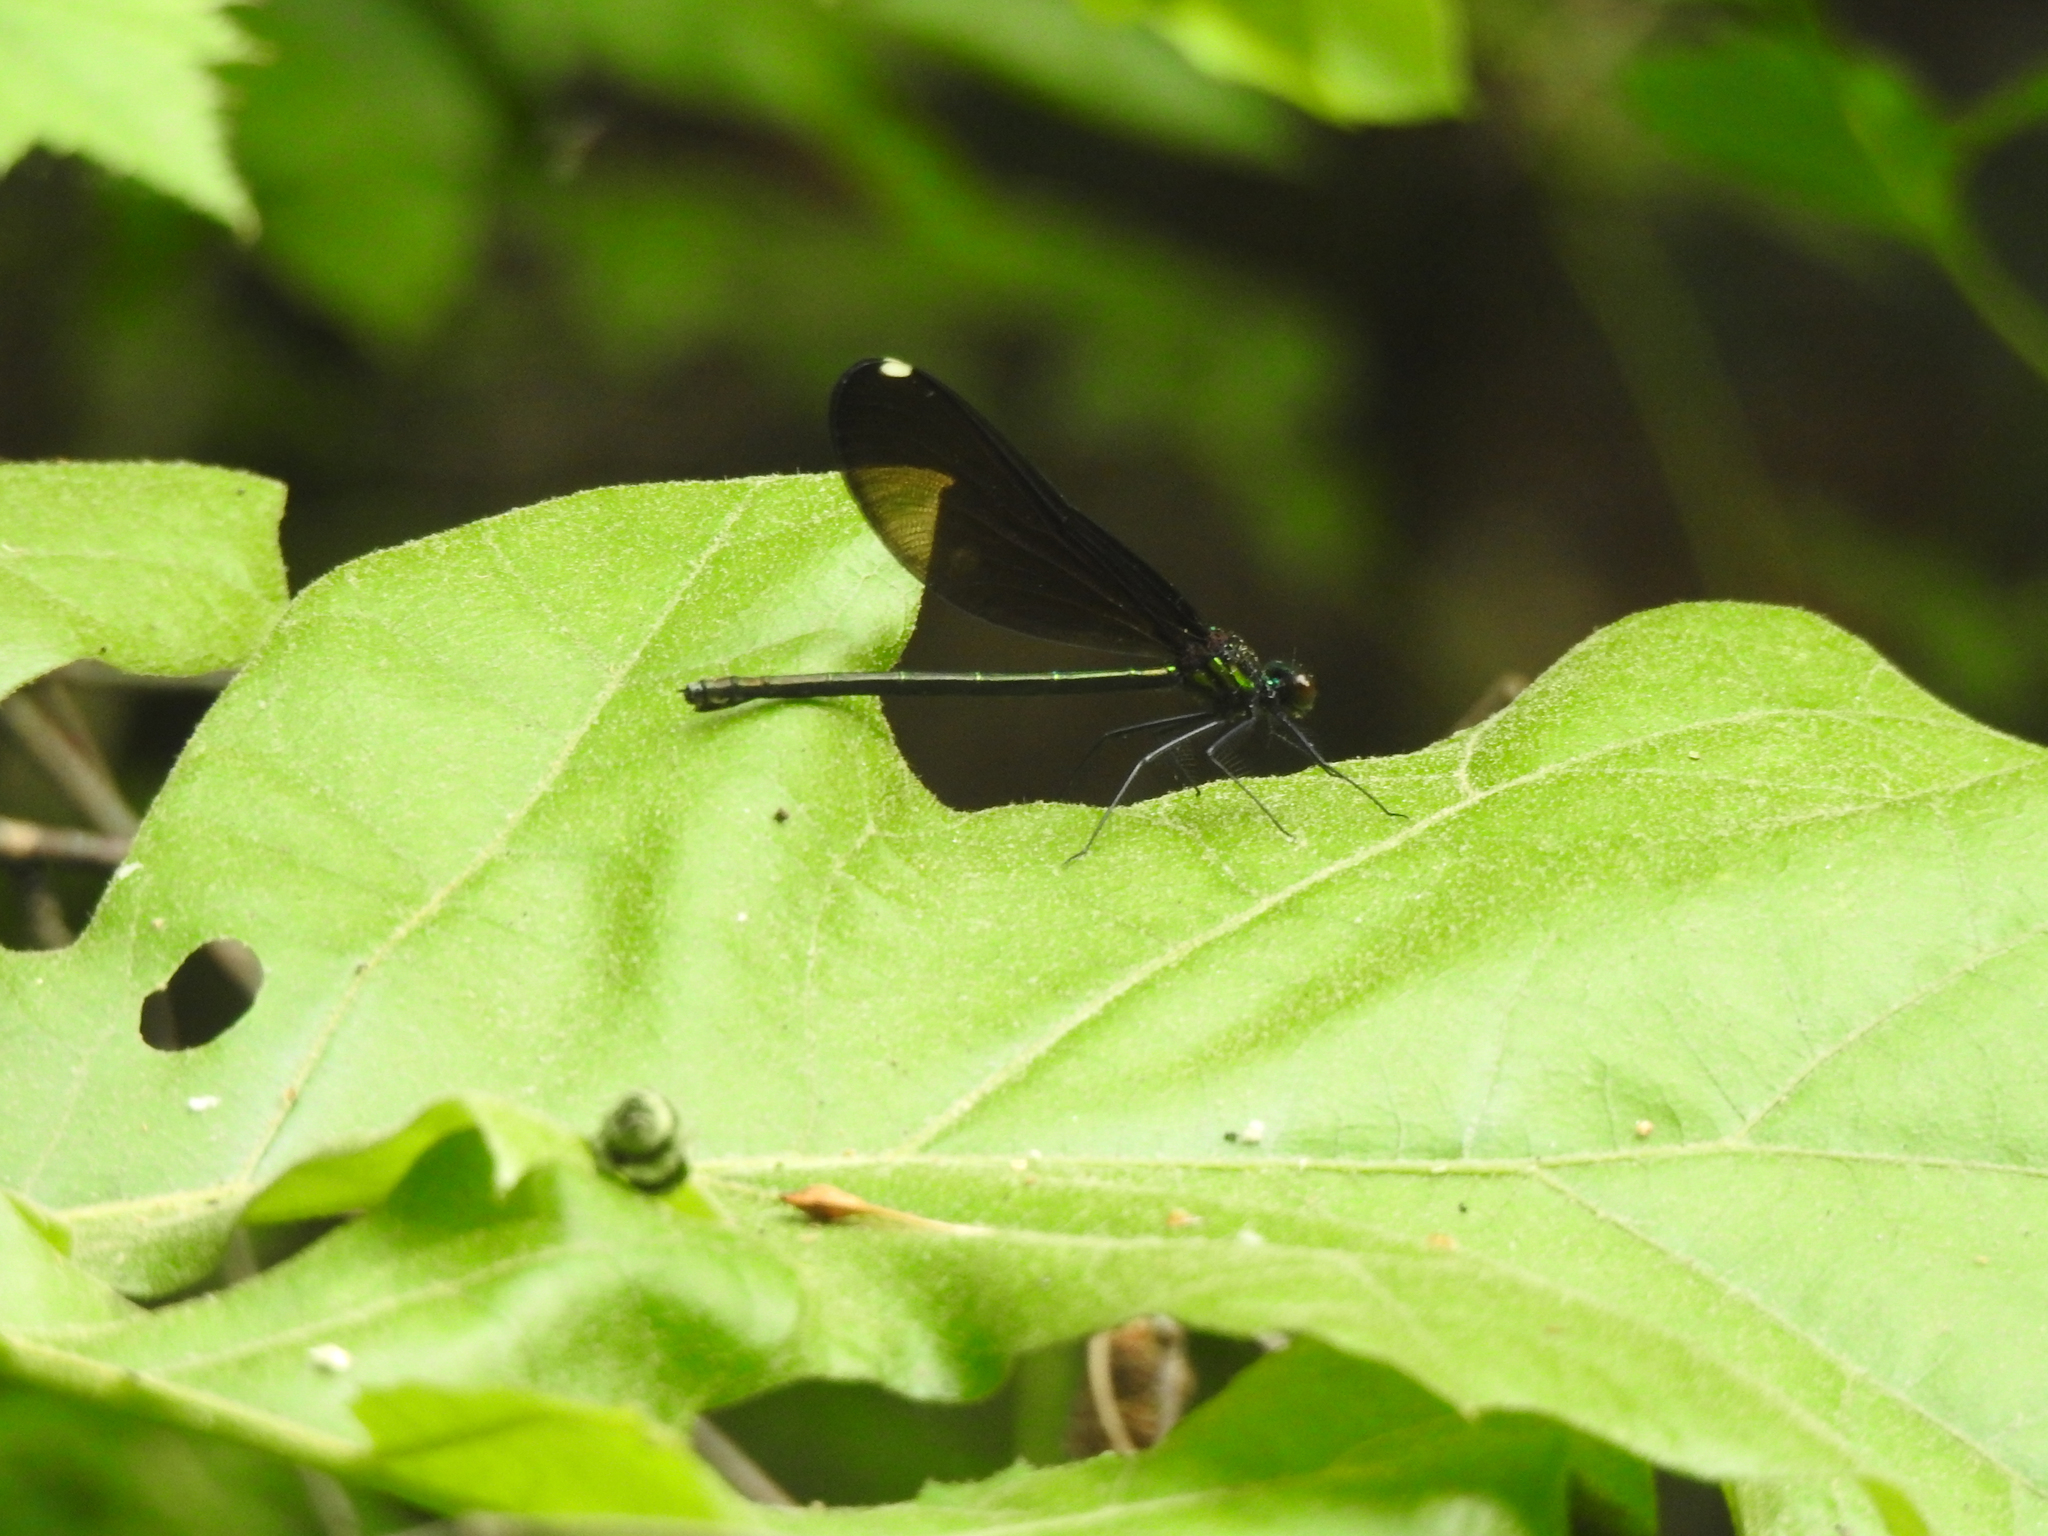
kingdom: Animalia
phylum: Arthropoda
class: Insecta
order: Odonata
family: Calopterygidae
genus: Calopteryx
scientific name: Calopteryx maculata
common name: Ebony jewelwing
